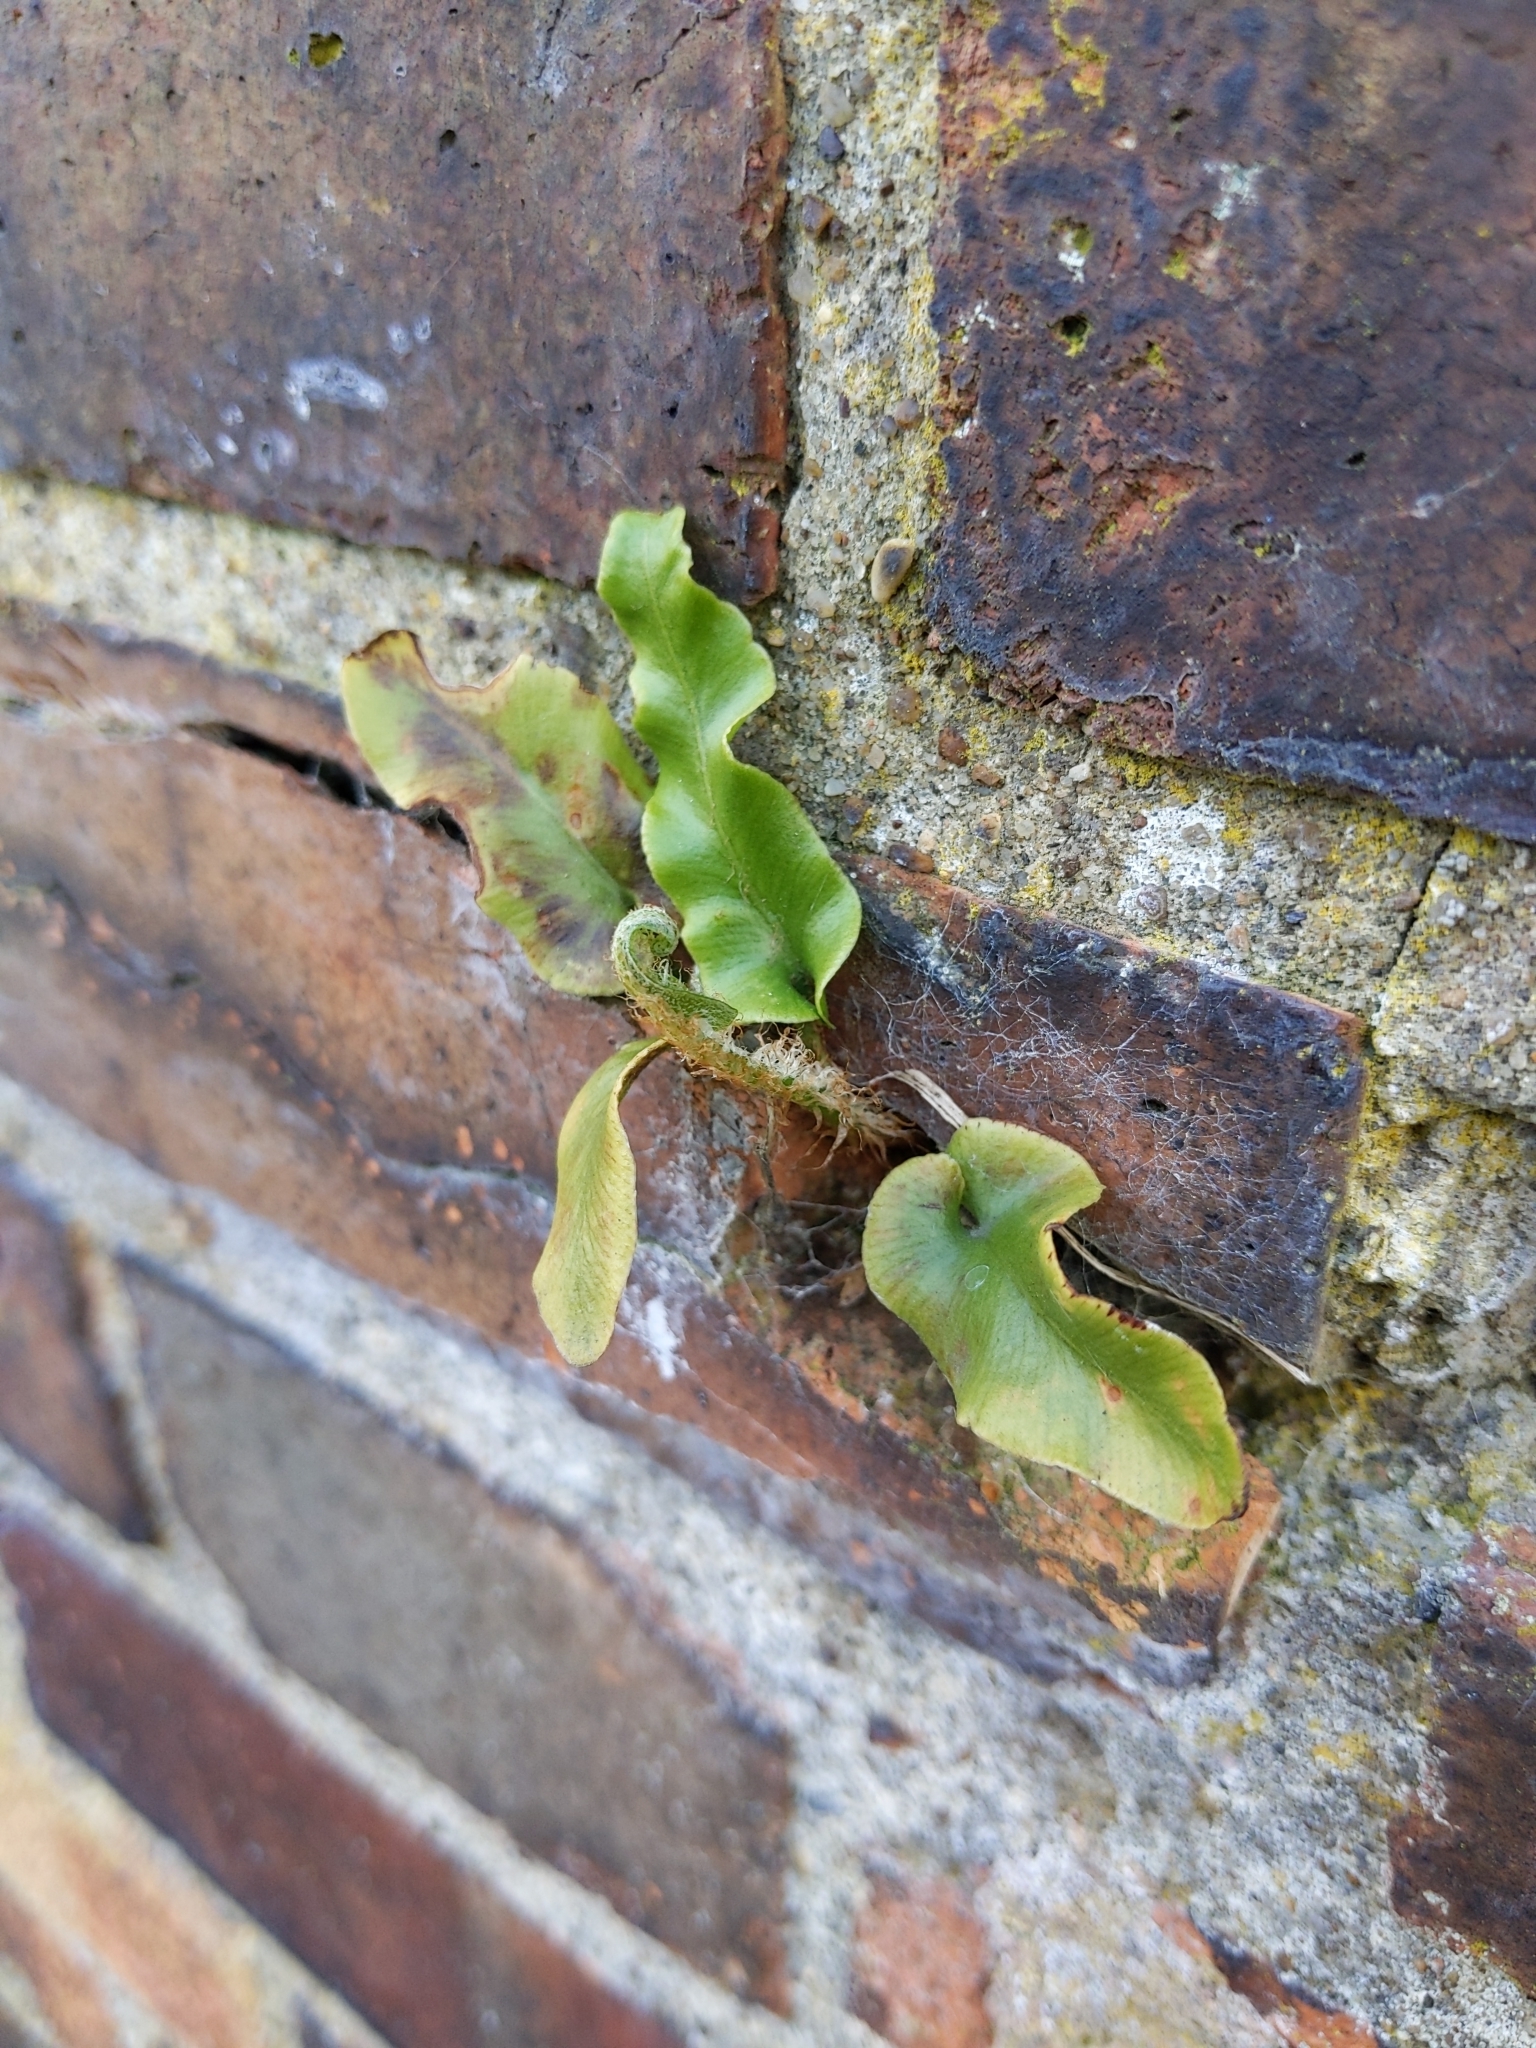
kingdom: Plantae
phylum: Tracheophyta
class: Polypodiopsida
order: Polypodiales
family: Aspleniaceae
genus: Asplenium
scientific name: Asplenium scolopendrium
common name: Hart's-tongue fern
